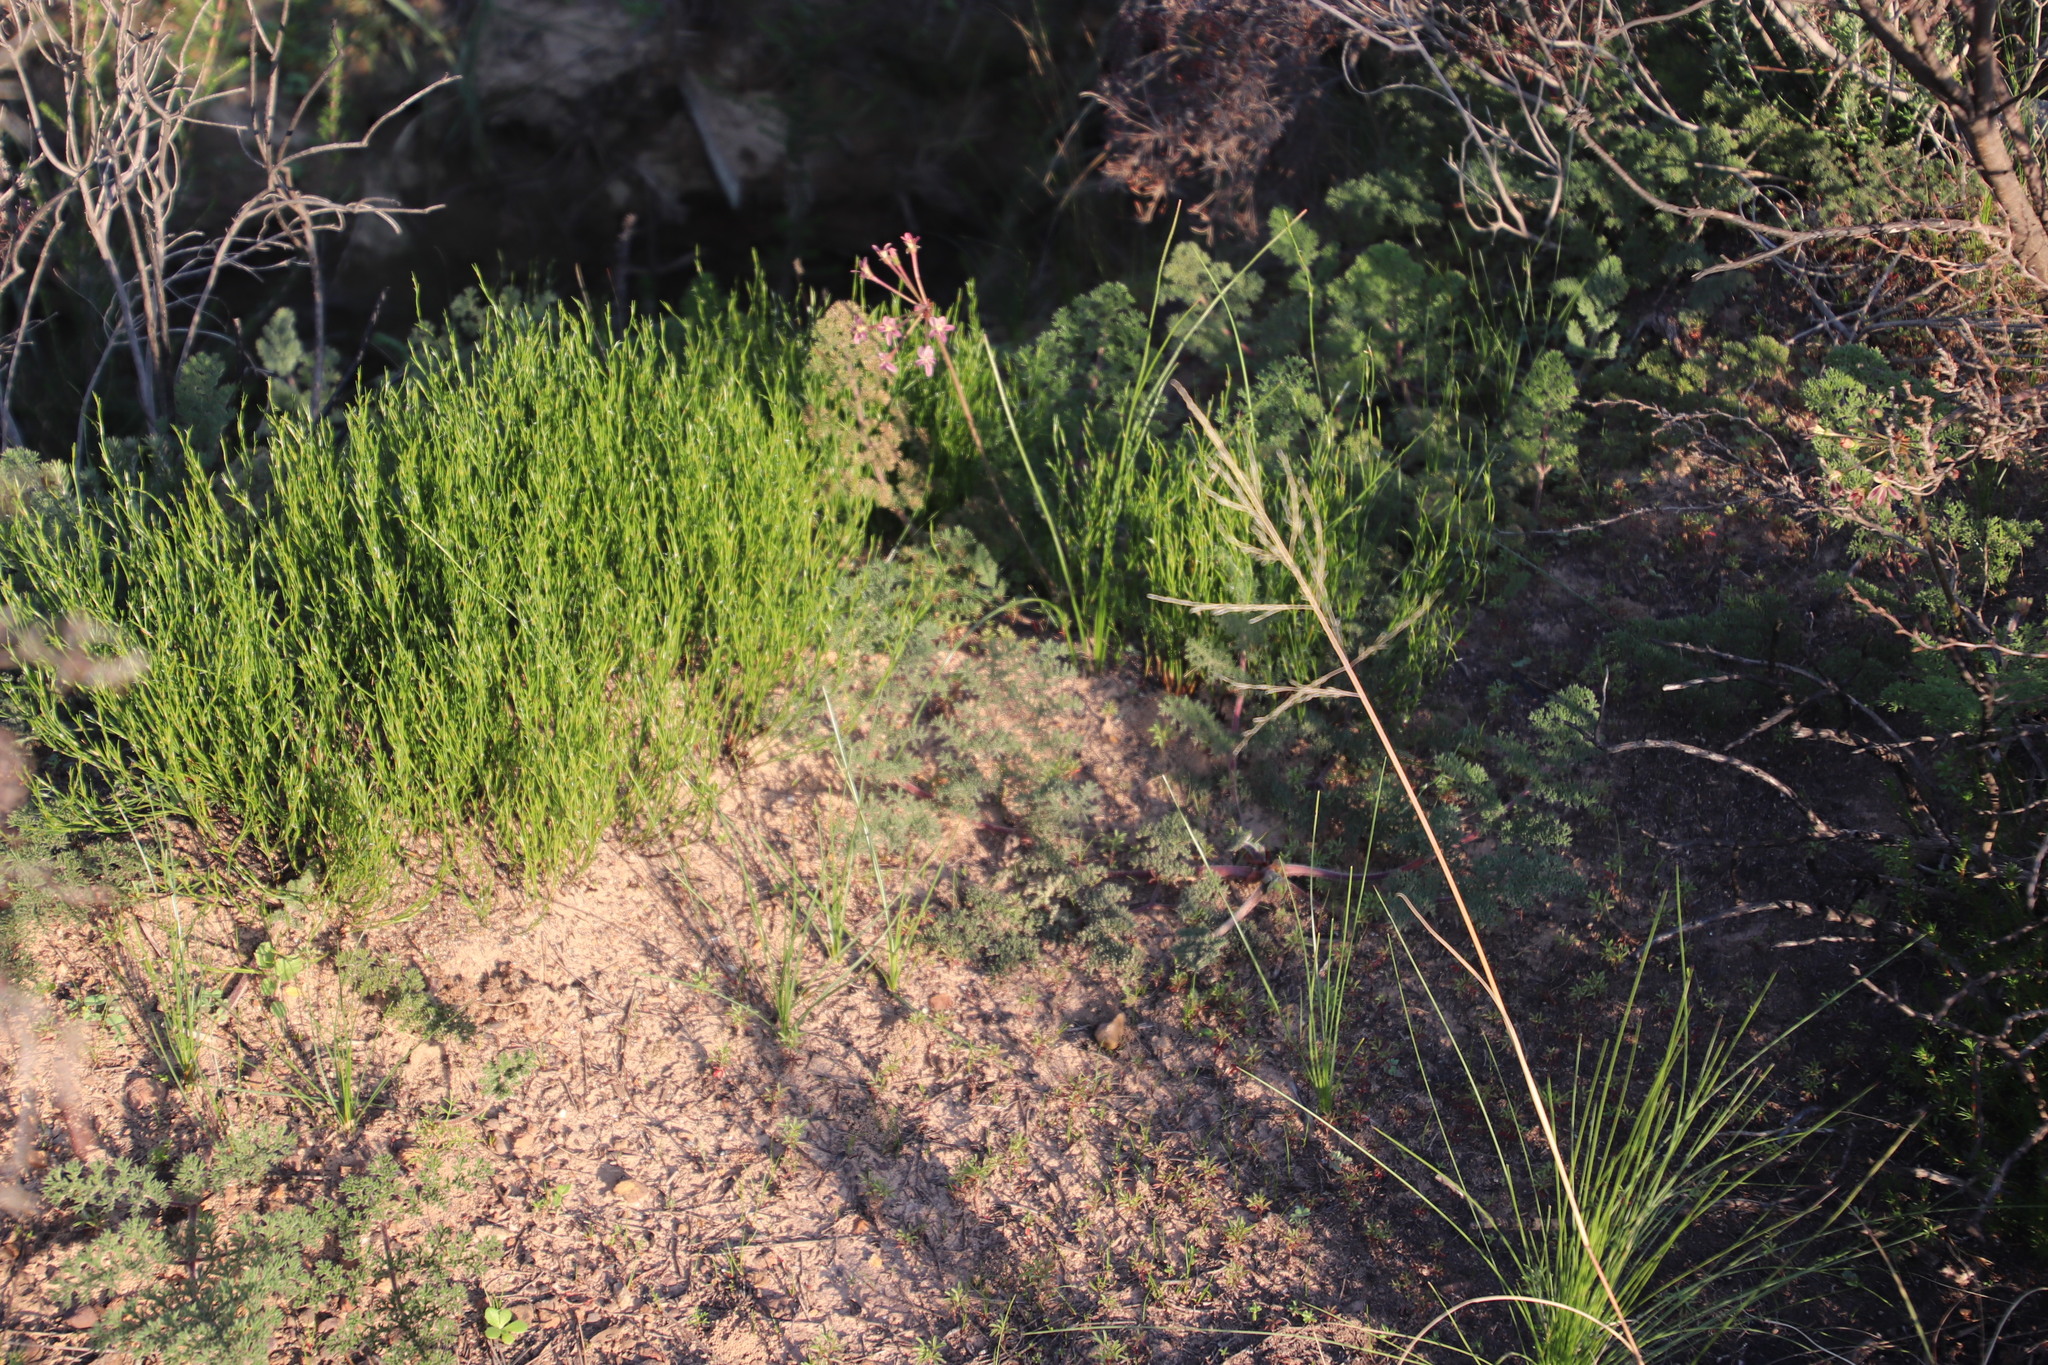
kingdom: Plantae
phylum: Tracheophyta
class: Magnoliopsida
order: Geraniales
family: Geraniaceae
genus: Pelargonium
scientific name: Pelargonium triste
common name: Night-scent pelargonium
